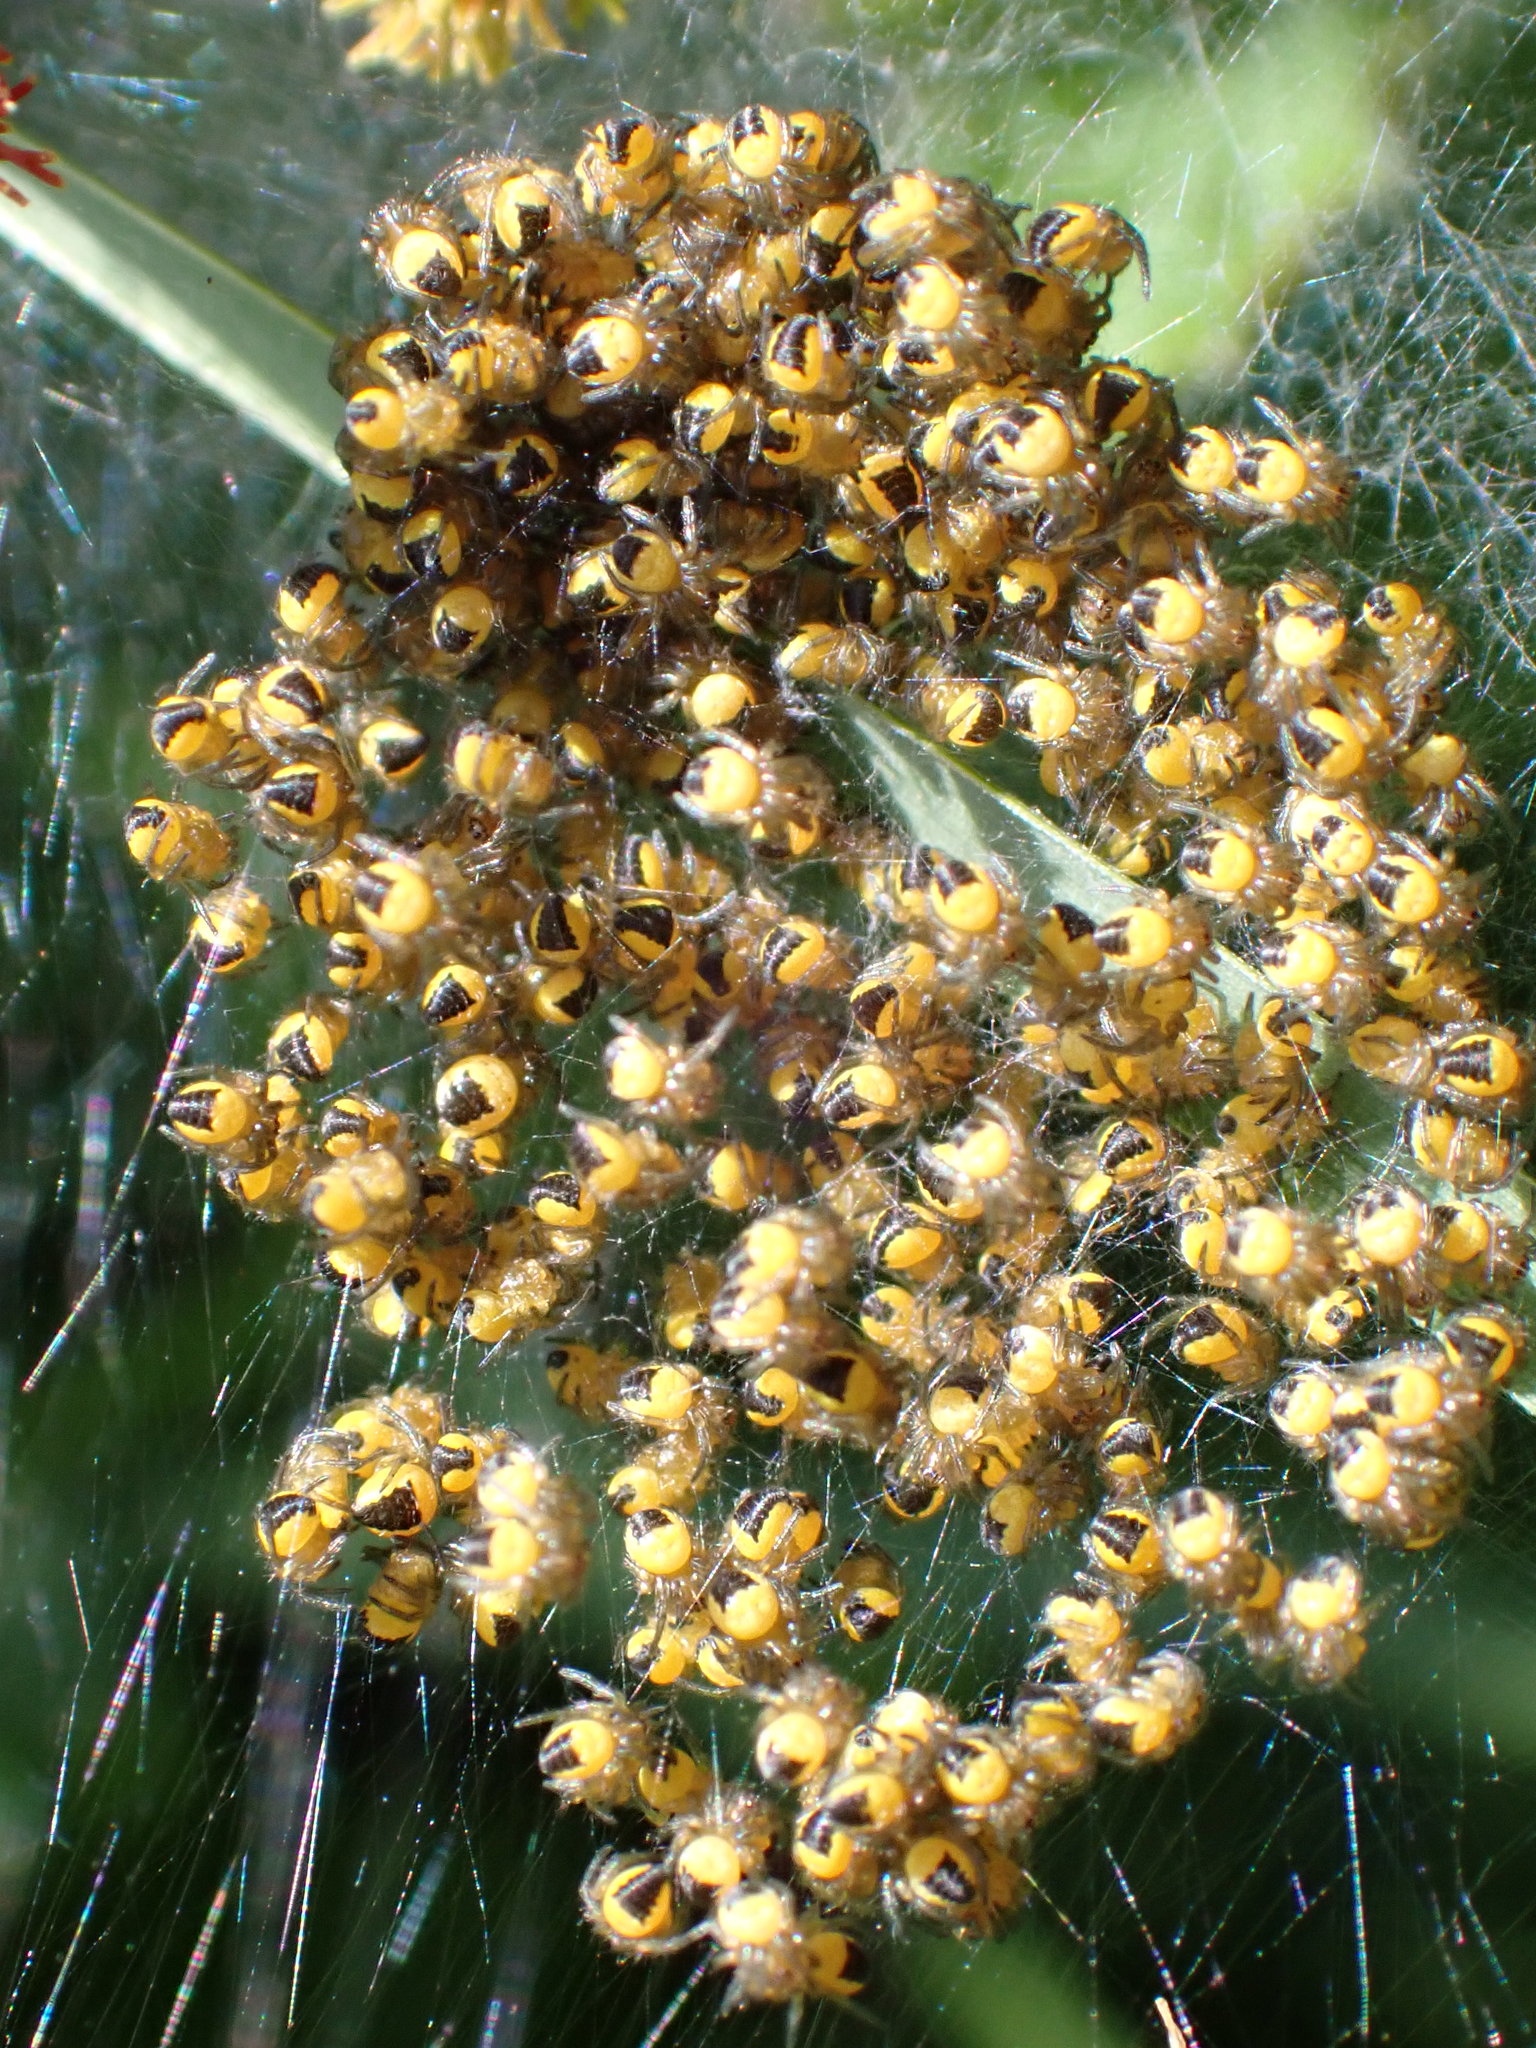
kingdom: Animalia
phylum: Arthropoda
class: Arachnida
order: Araneae
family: Araneidae
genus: Araneus
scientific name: Araneus diadematus
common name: Cross orbweaver
